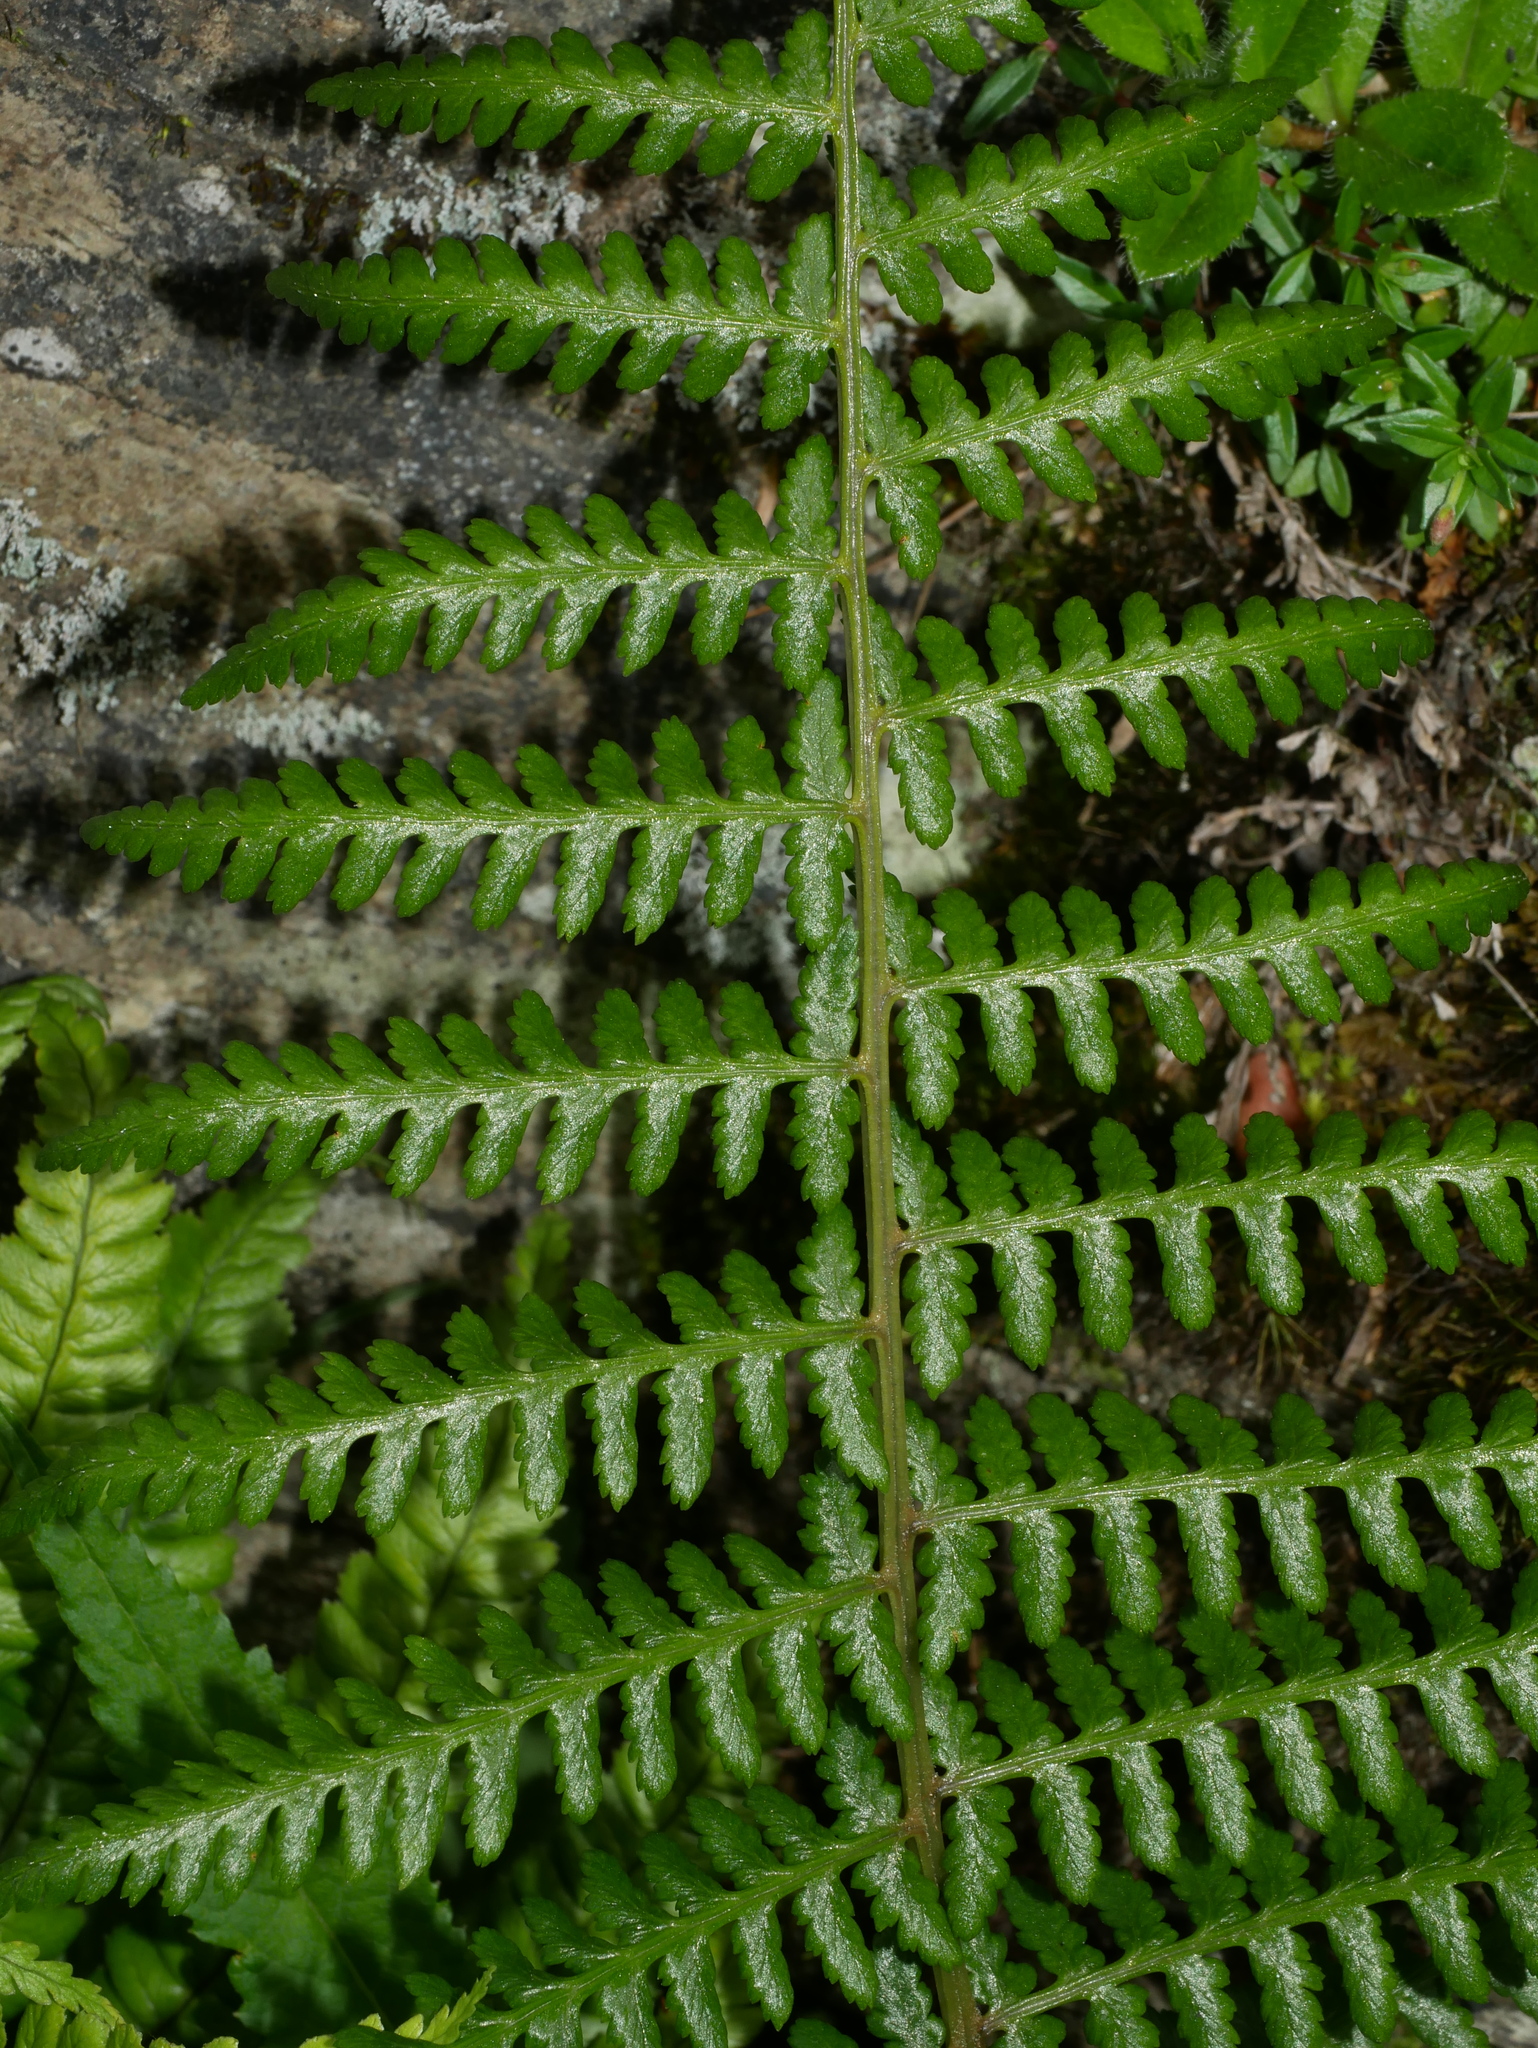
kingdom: Plantae
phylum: Tracheophyta
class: Polypodiopsida
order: Polypodiales
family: Athyriaceae
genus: Athyrium
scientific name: Athyrium oppositipennum
